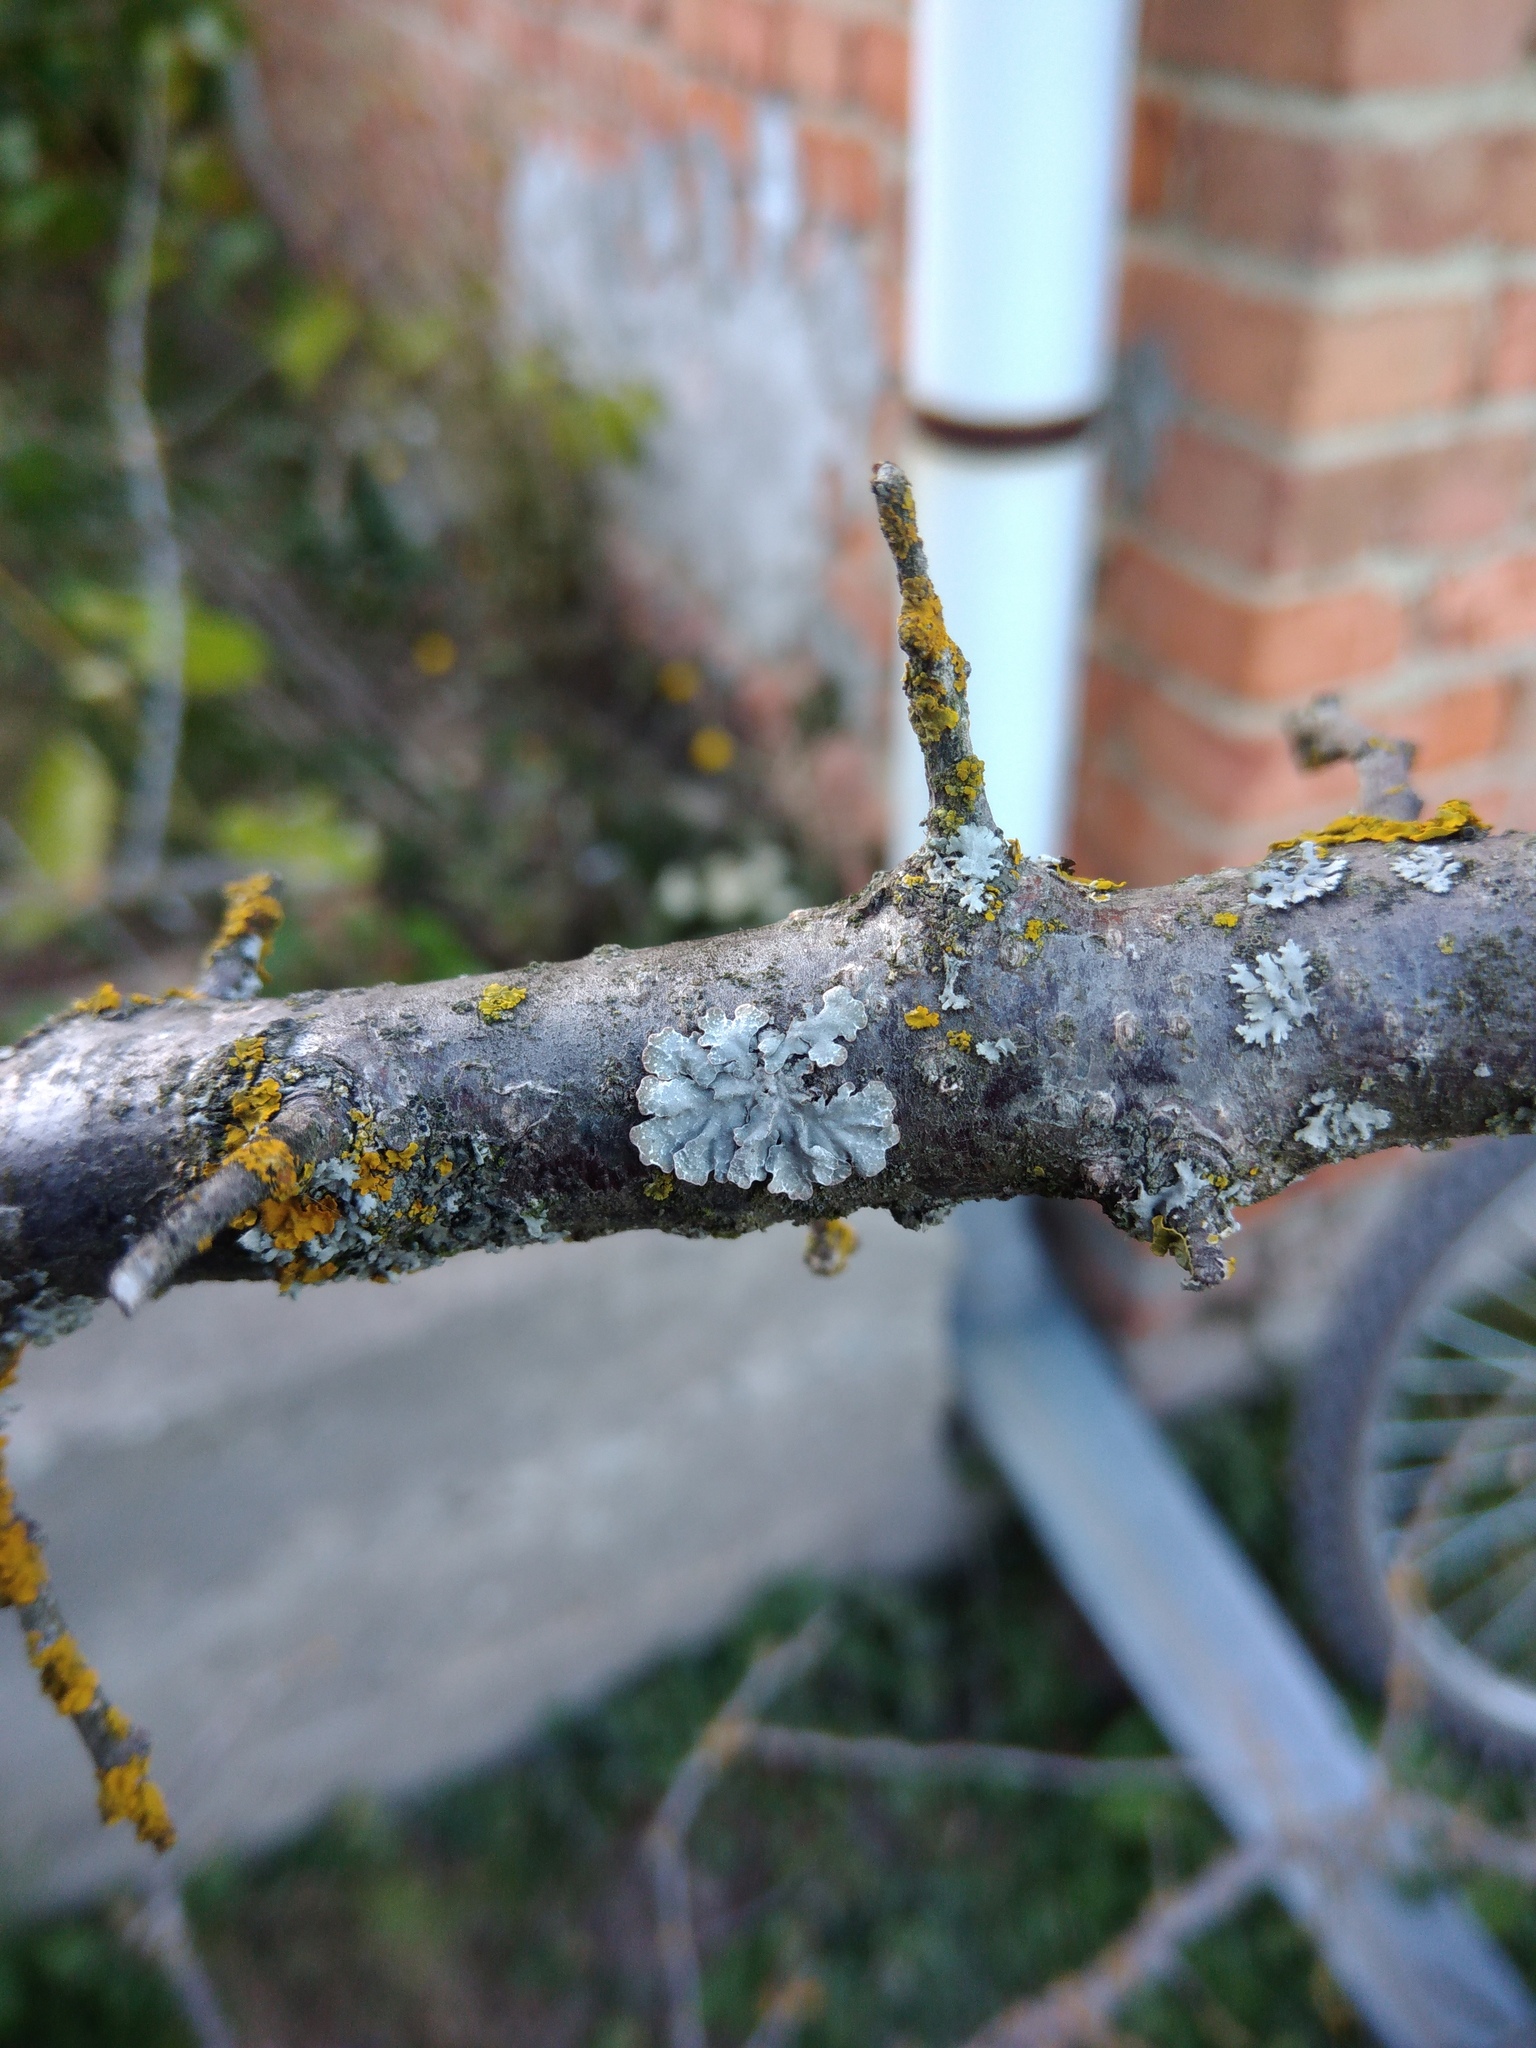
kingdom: Fungi
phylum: Ascomycota
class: Lecanoromycetes
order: Lecanorales
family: Parmeliaceae
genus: Parmelia
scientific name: Parmelia sulcata
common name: Netted shield lichen
